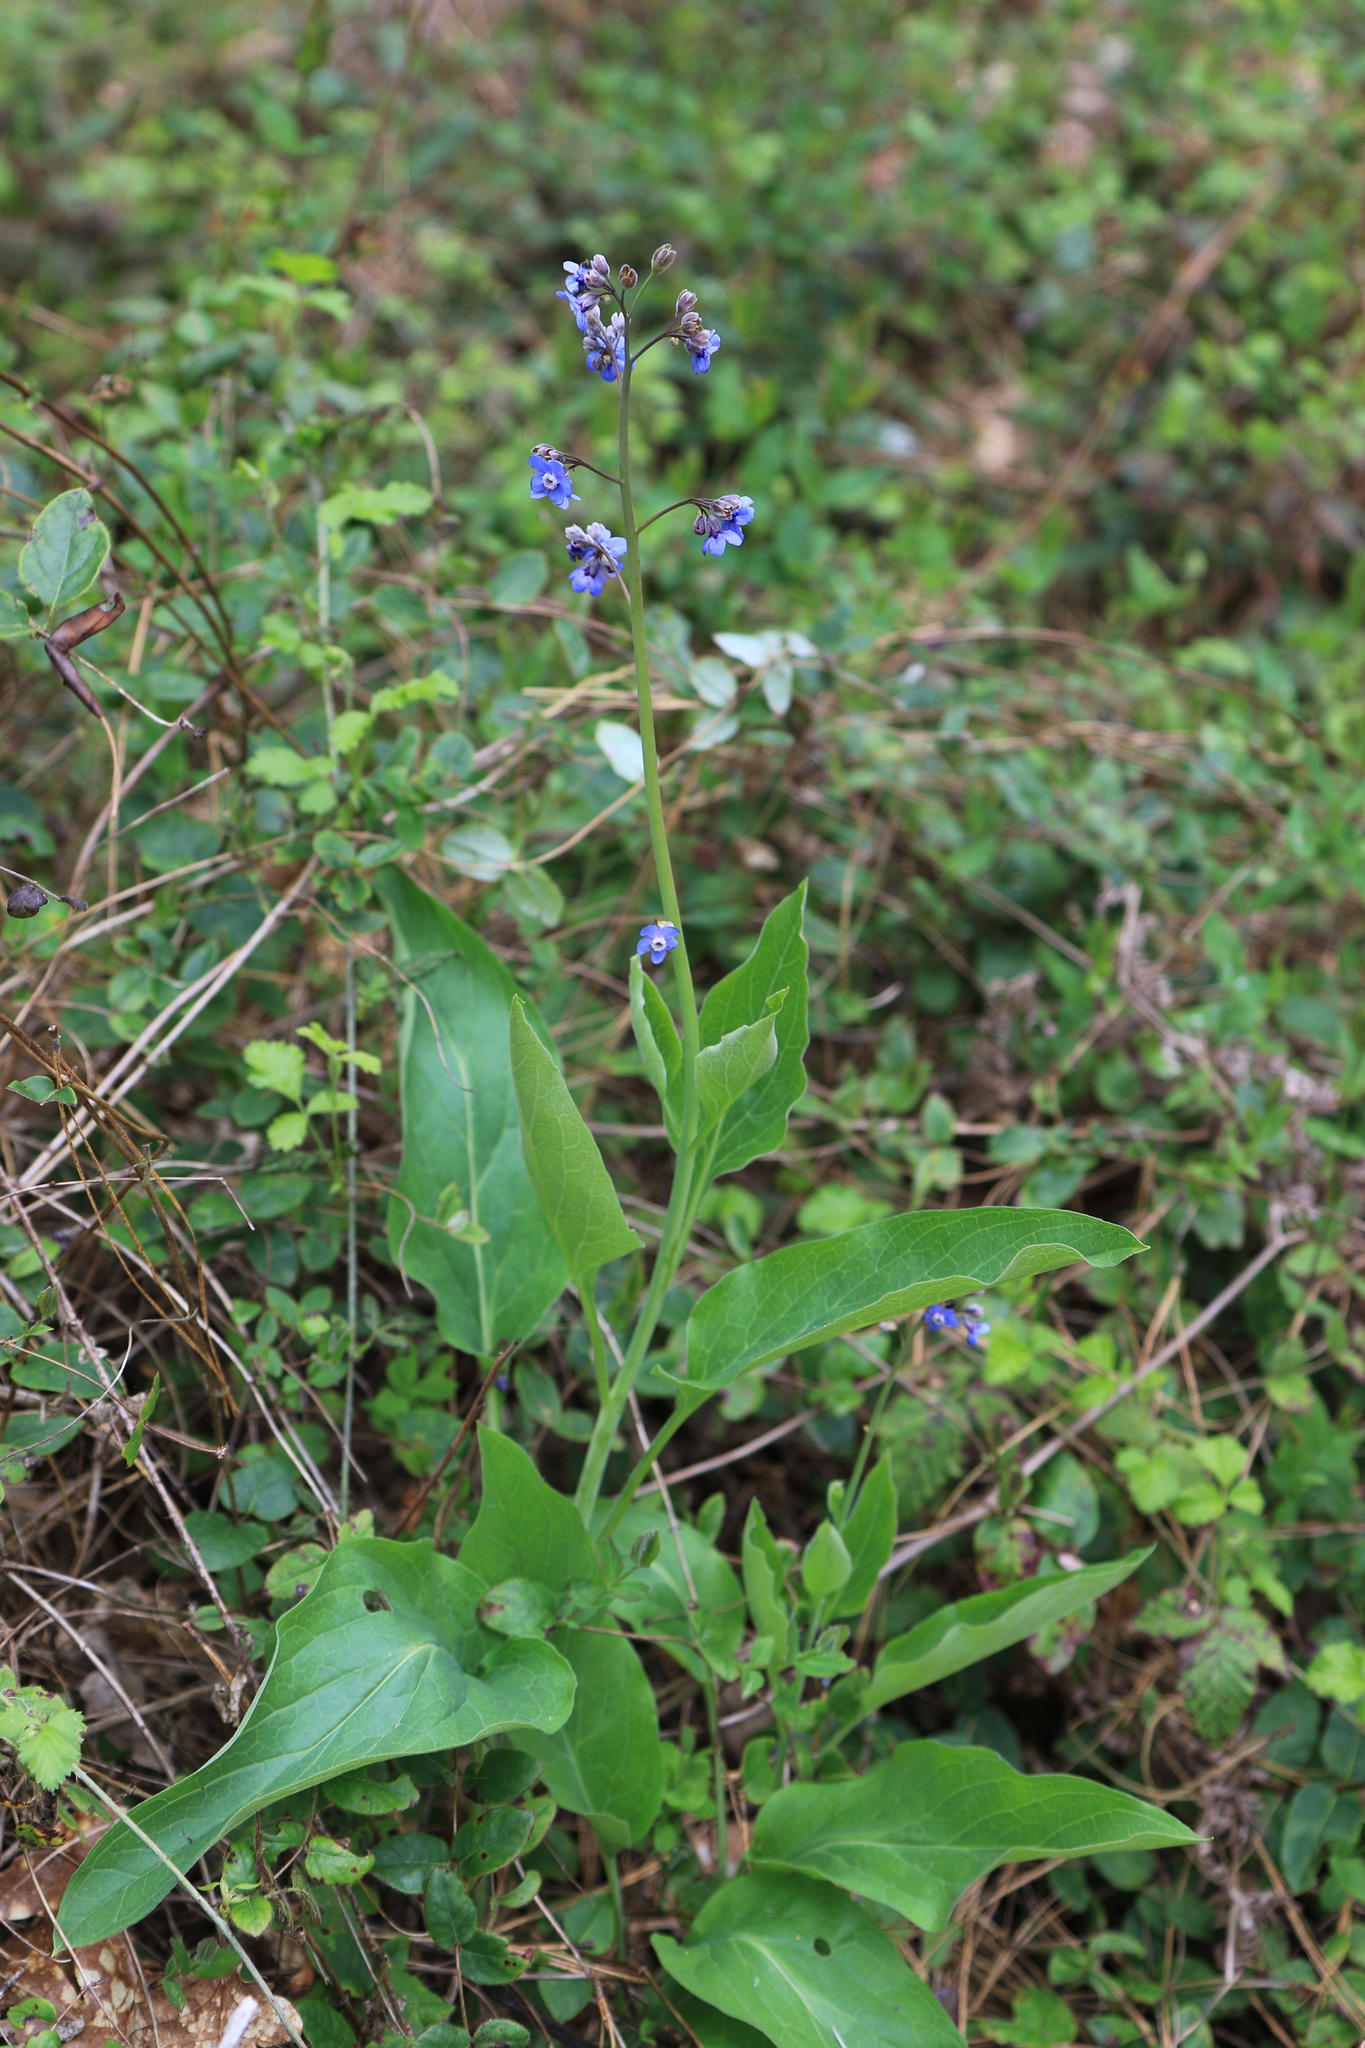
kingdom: Plantae
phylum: Tracheophyta
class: Magnoliopsida
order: Boraginales
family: Boraginaceae
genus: Adelinia
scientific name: Adelinia grande
